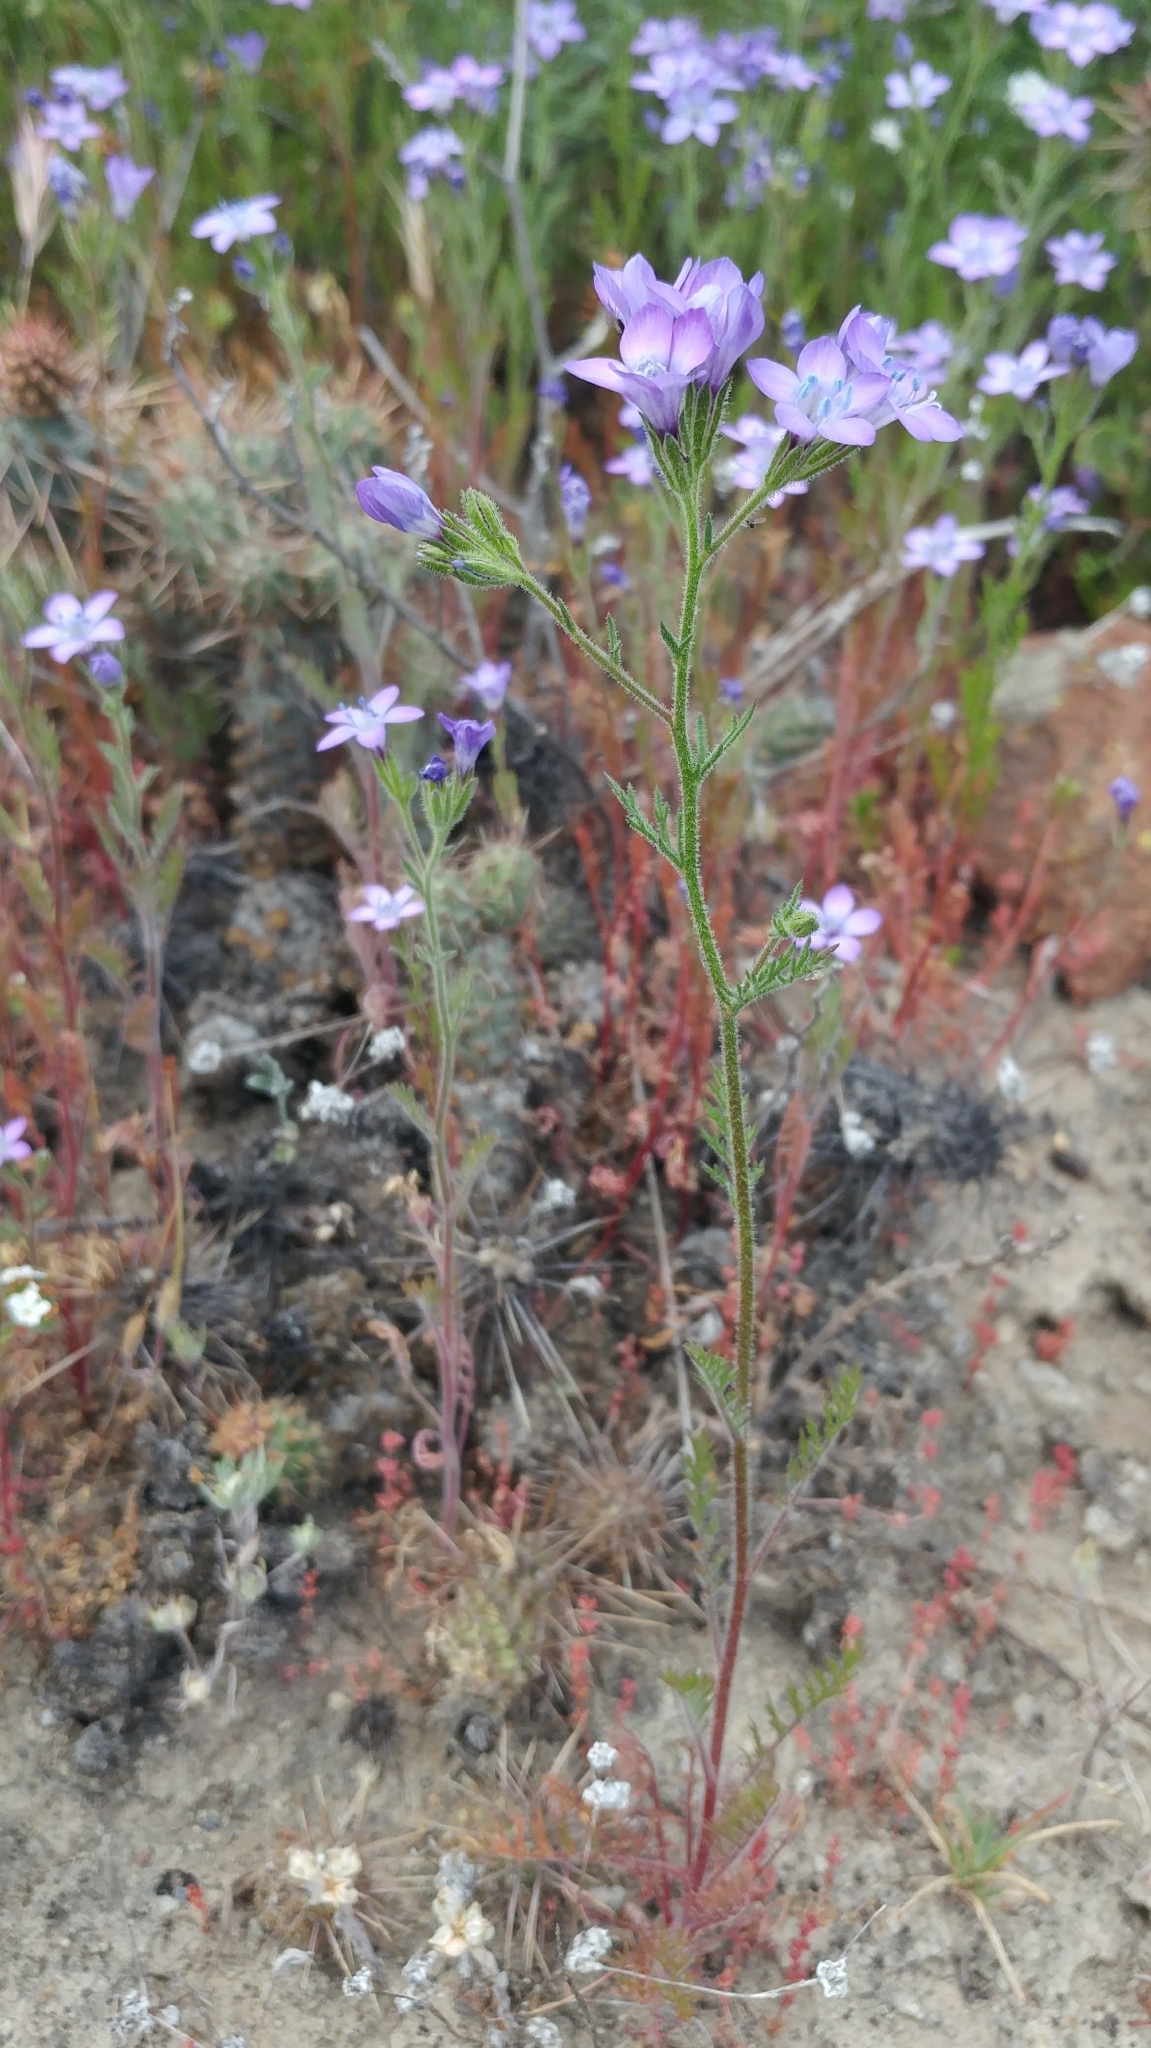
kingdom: Plantae
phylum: Tracheophyta
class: Magnoliopsida
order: Ericales
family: Polemoniaceae
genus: Gilia
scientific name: Gilia nevinii
